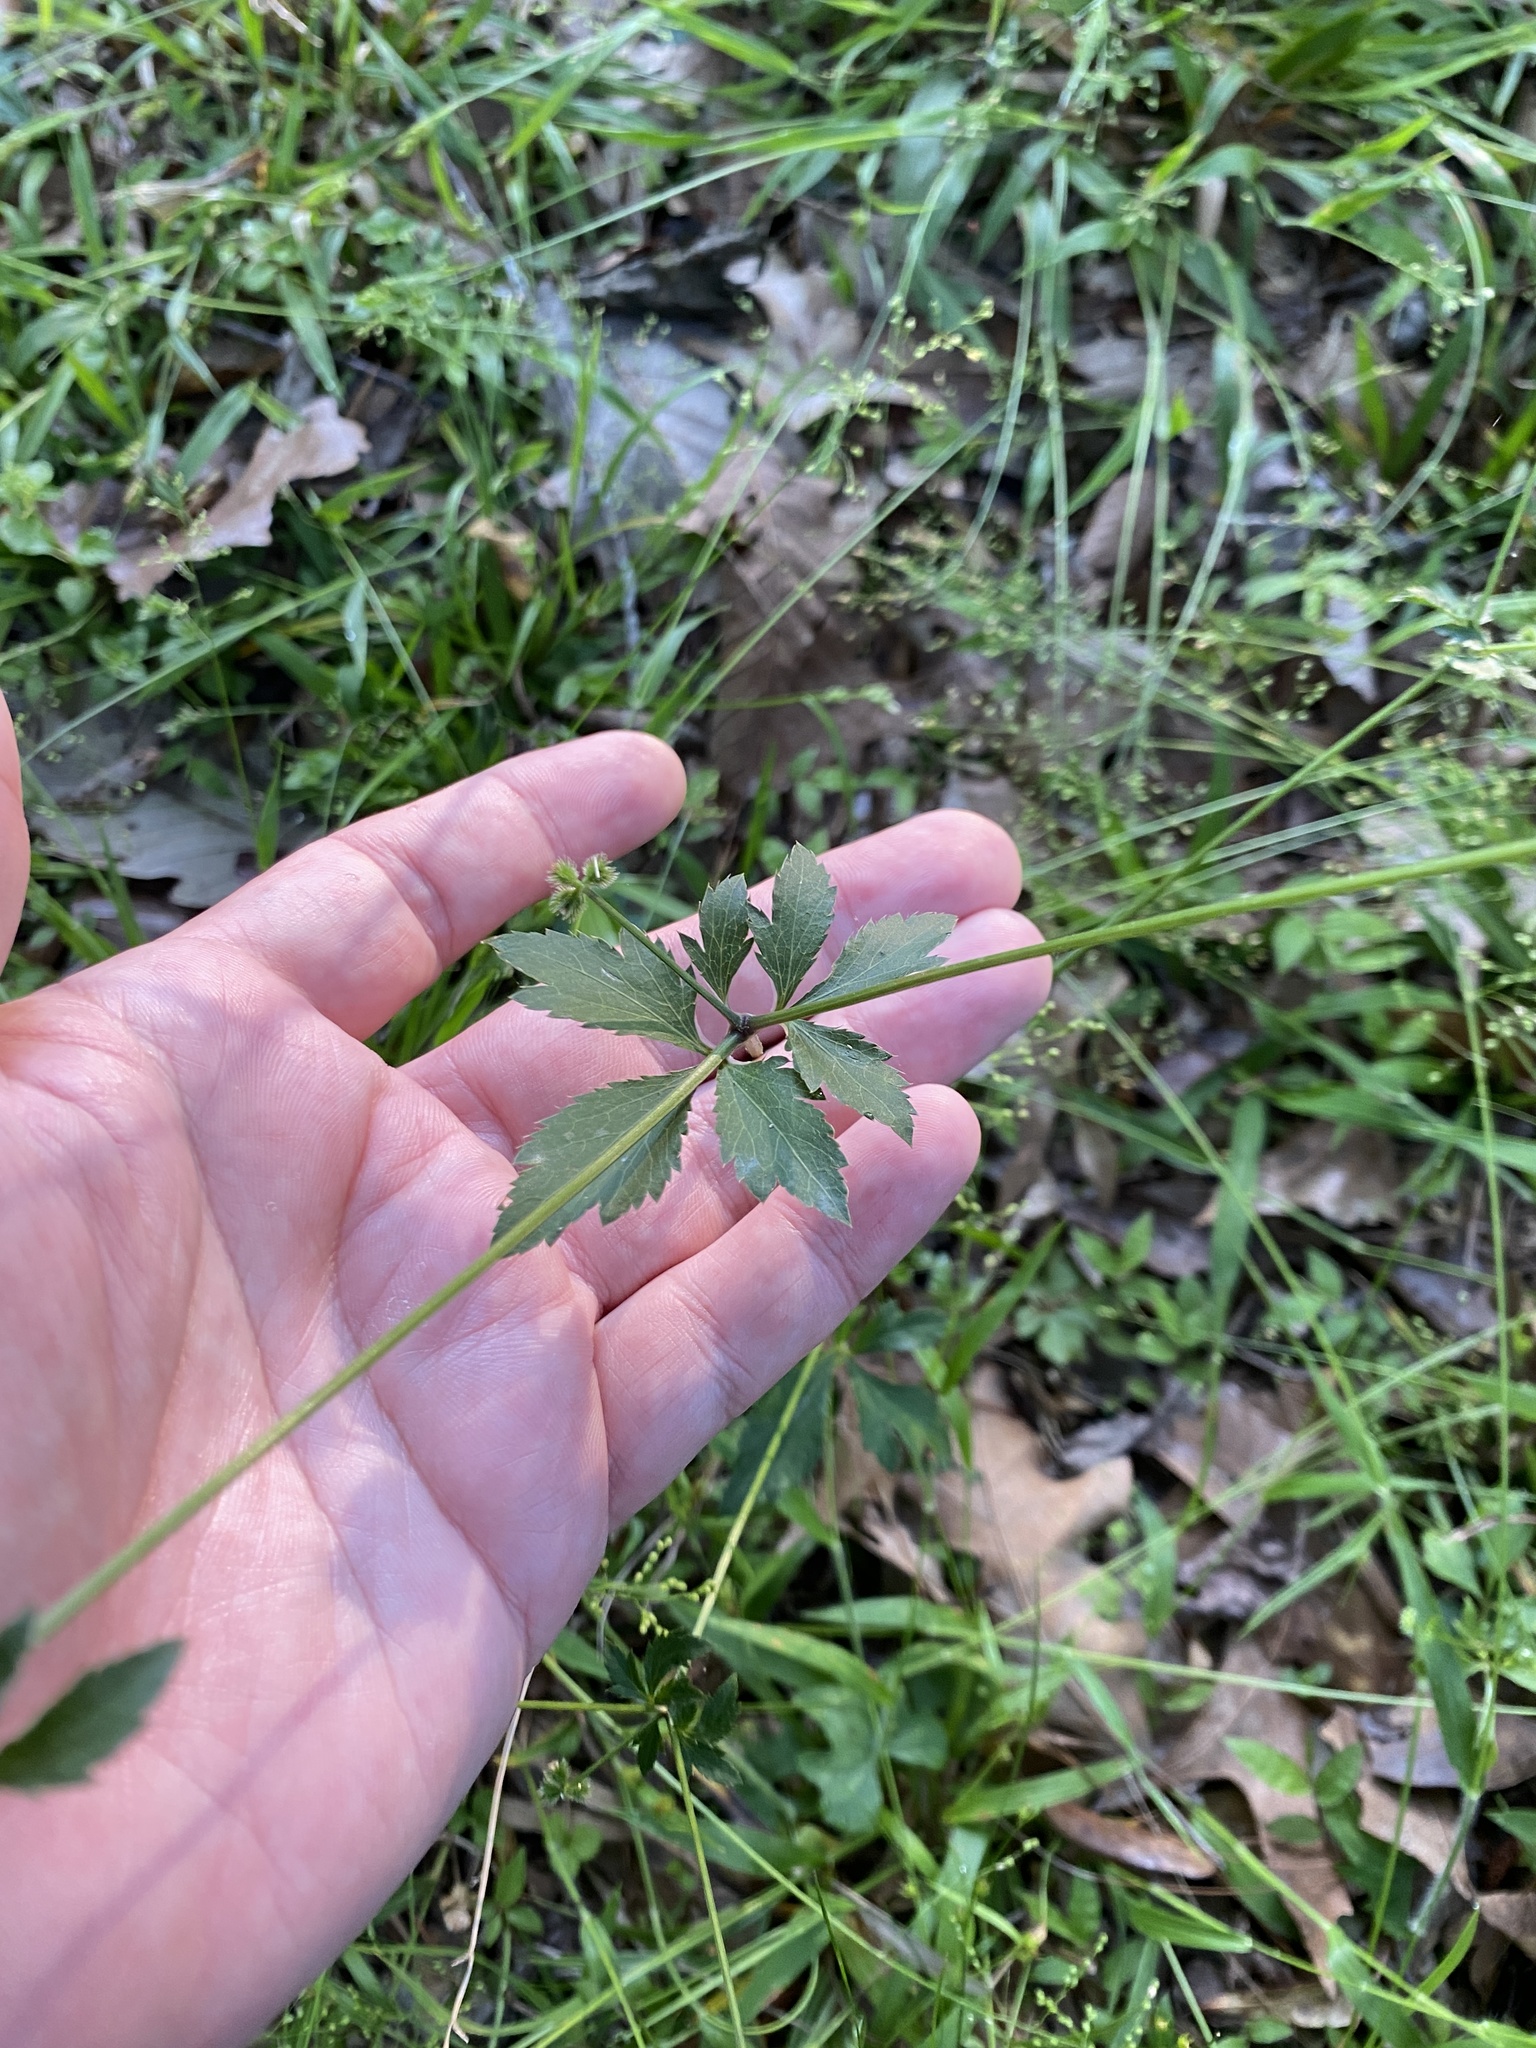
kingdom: Plantae
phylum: Tracheophyta
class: Magnoliopsida
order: Apiales
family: Apiaceae
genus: Sanicula
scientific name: Sanicula canadensis
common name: Canada sanicle
